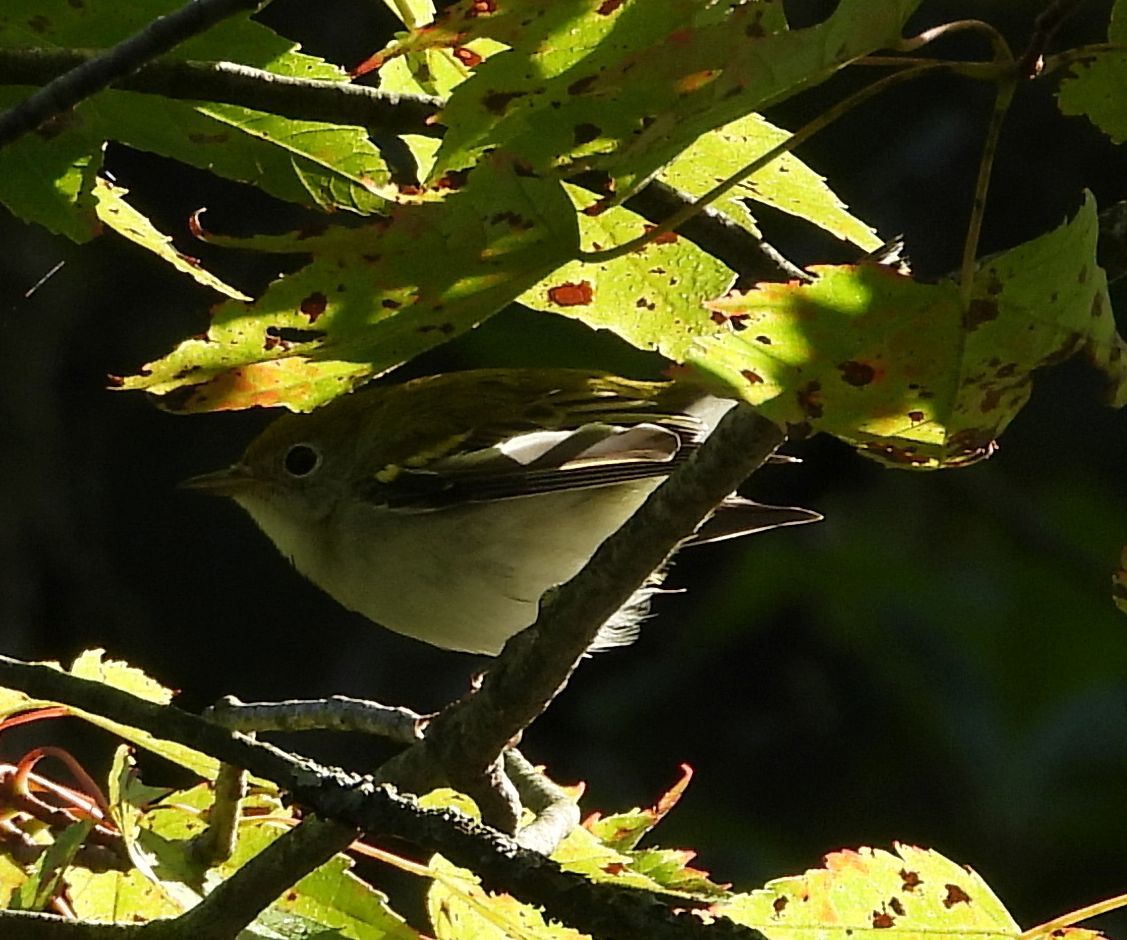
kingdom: Animalia
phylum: Chordata
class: Aves
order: Passeriformes
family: Parulidae
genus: Setophaga
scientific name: Setophaga pensylvanica
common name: Chestnut-sided warbler
